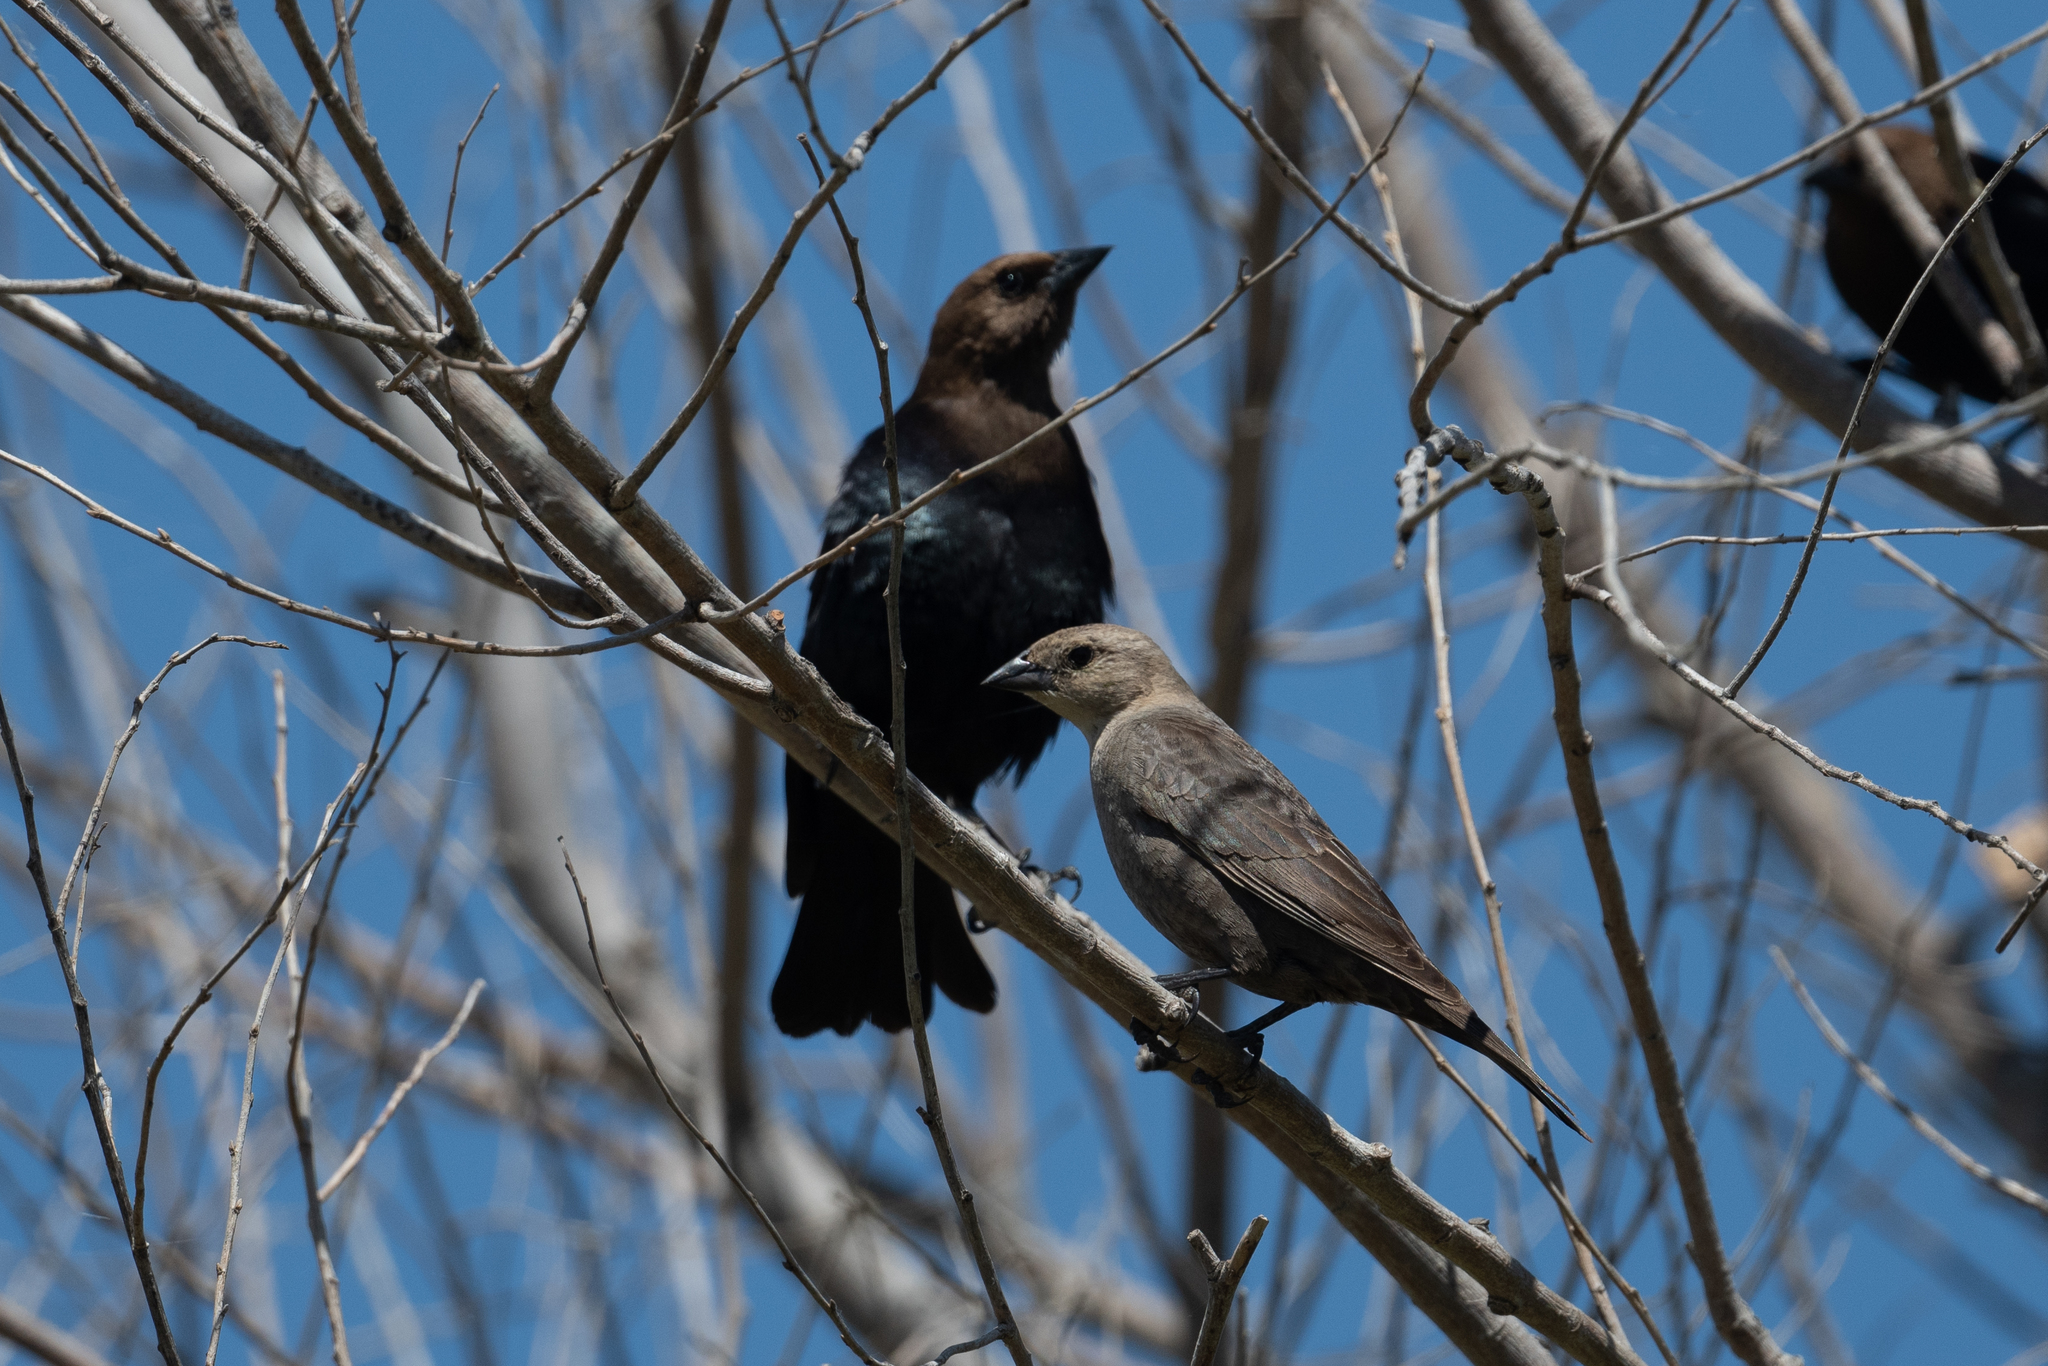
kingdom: Animalia
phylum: Chordata
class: Aves
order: Passeriformes
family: Icteridae
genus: Molothrus
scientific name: Molothrus ater
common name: Brown-headed cowbird
